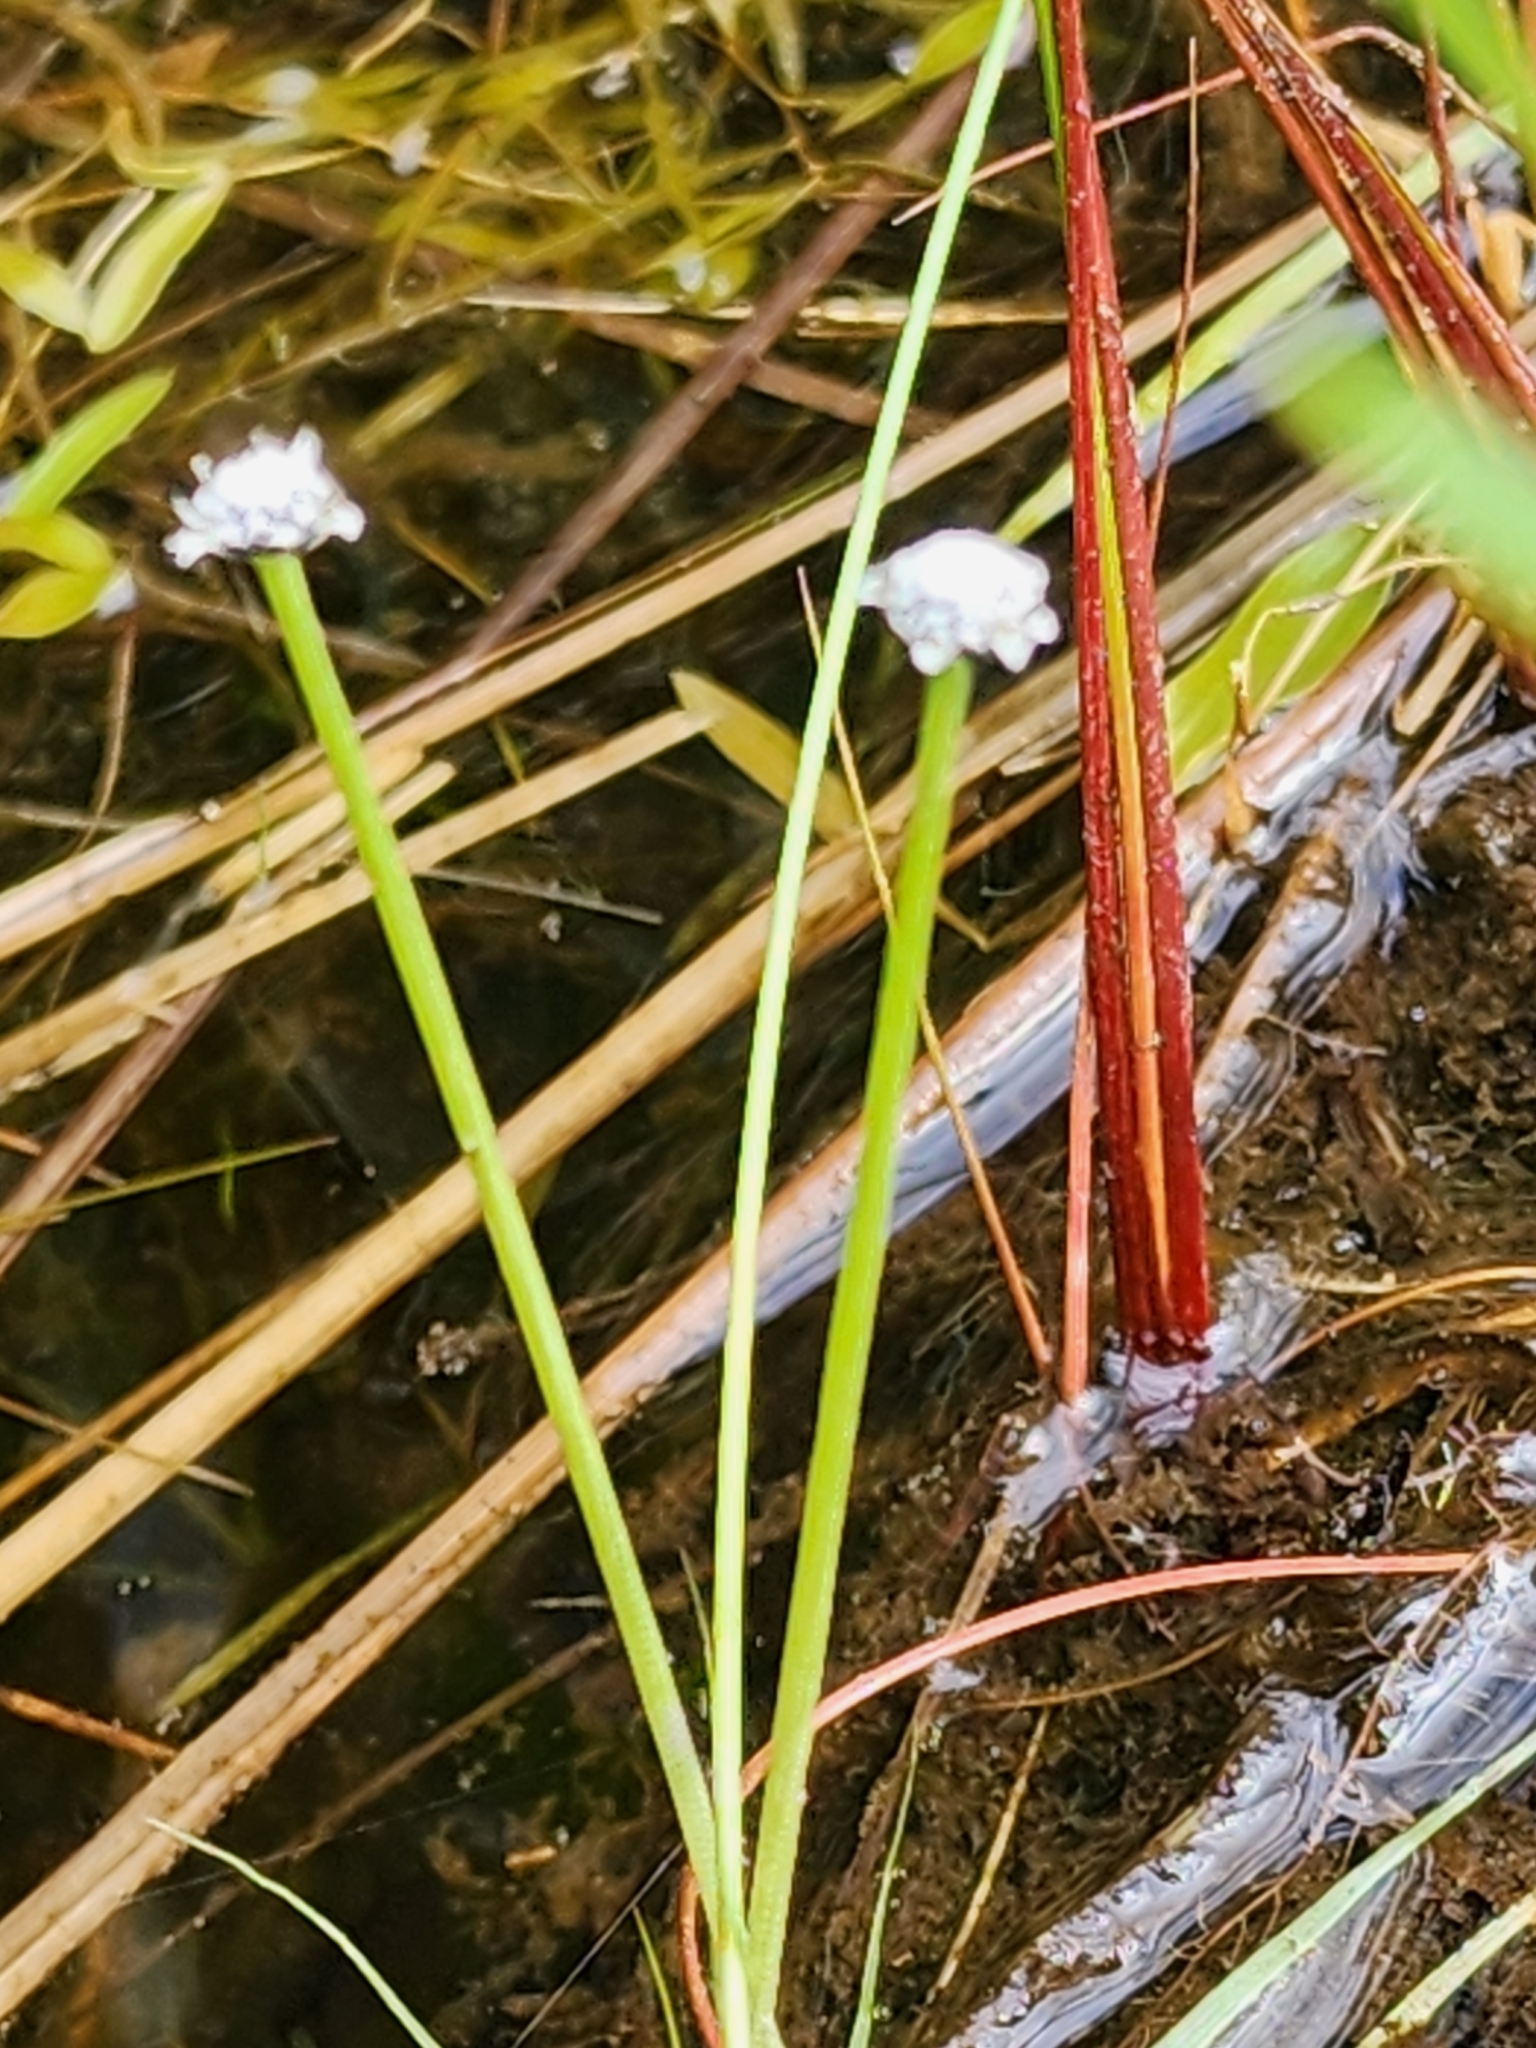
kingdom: Plantae
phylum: Tracheophyta
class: Liliopsida
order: Poales
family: Eriocaulaceae
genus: Eriocaulon
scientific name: Eriocaulon aquaticum
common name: Pipewort
